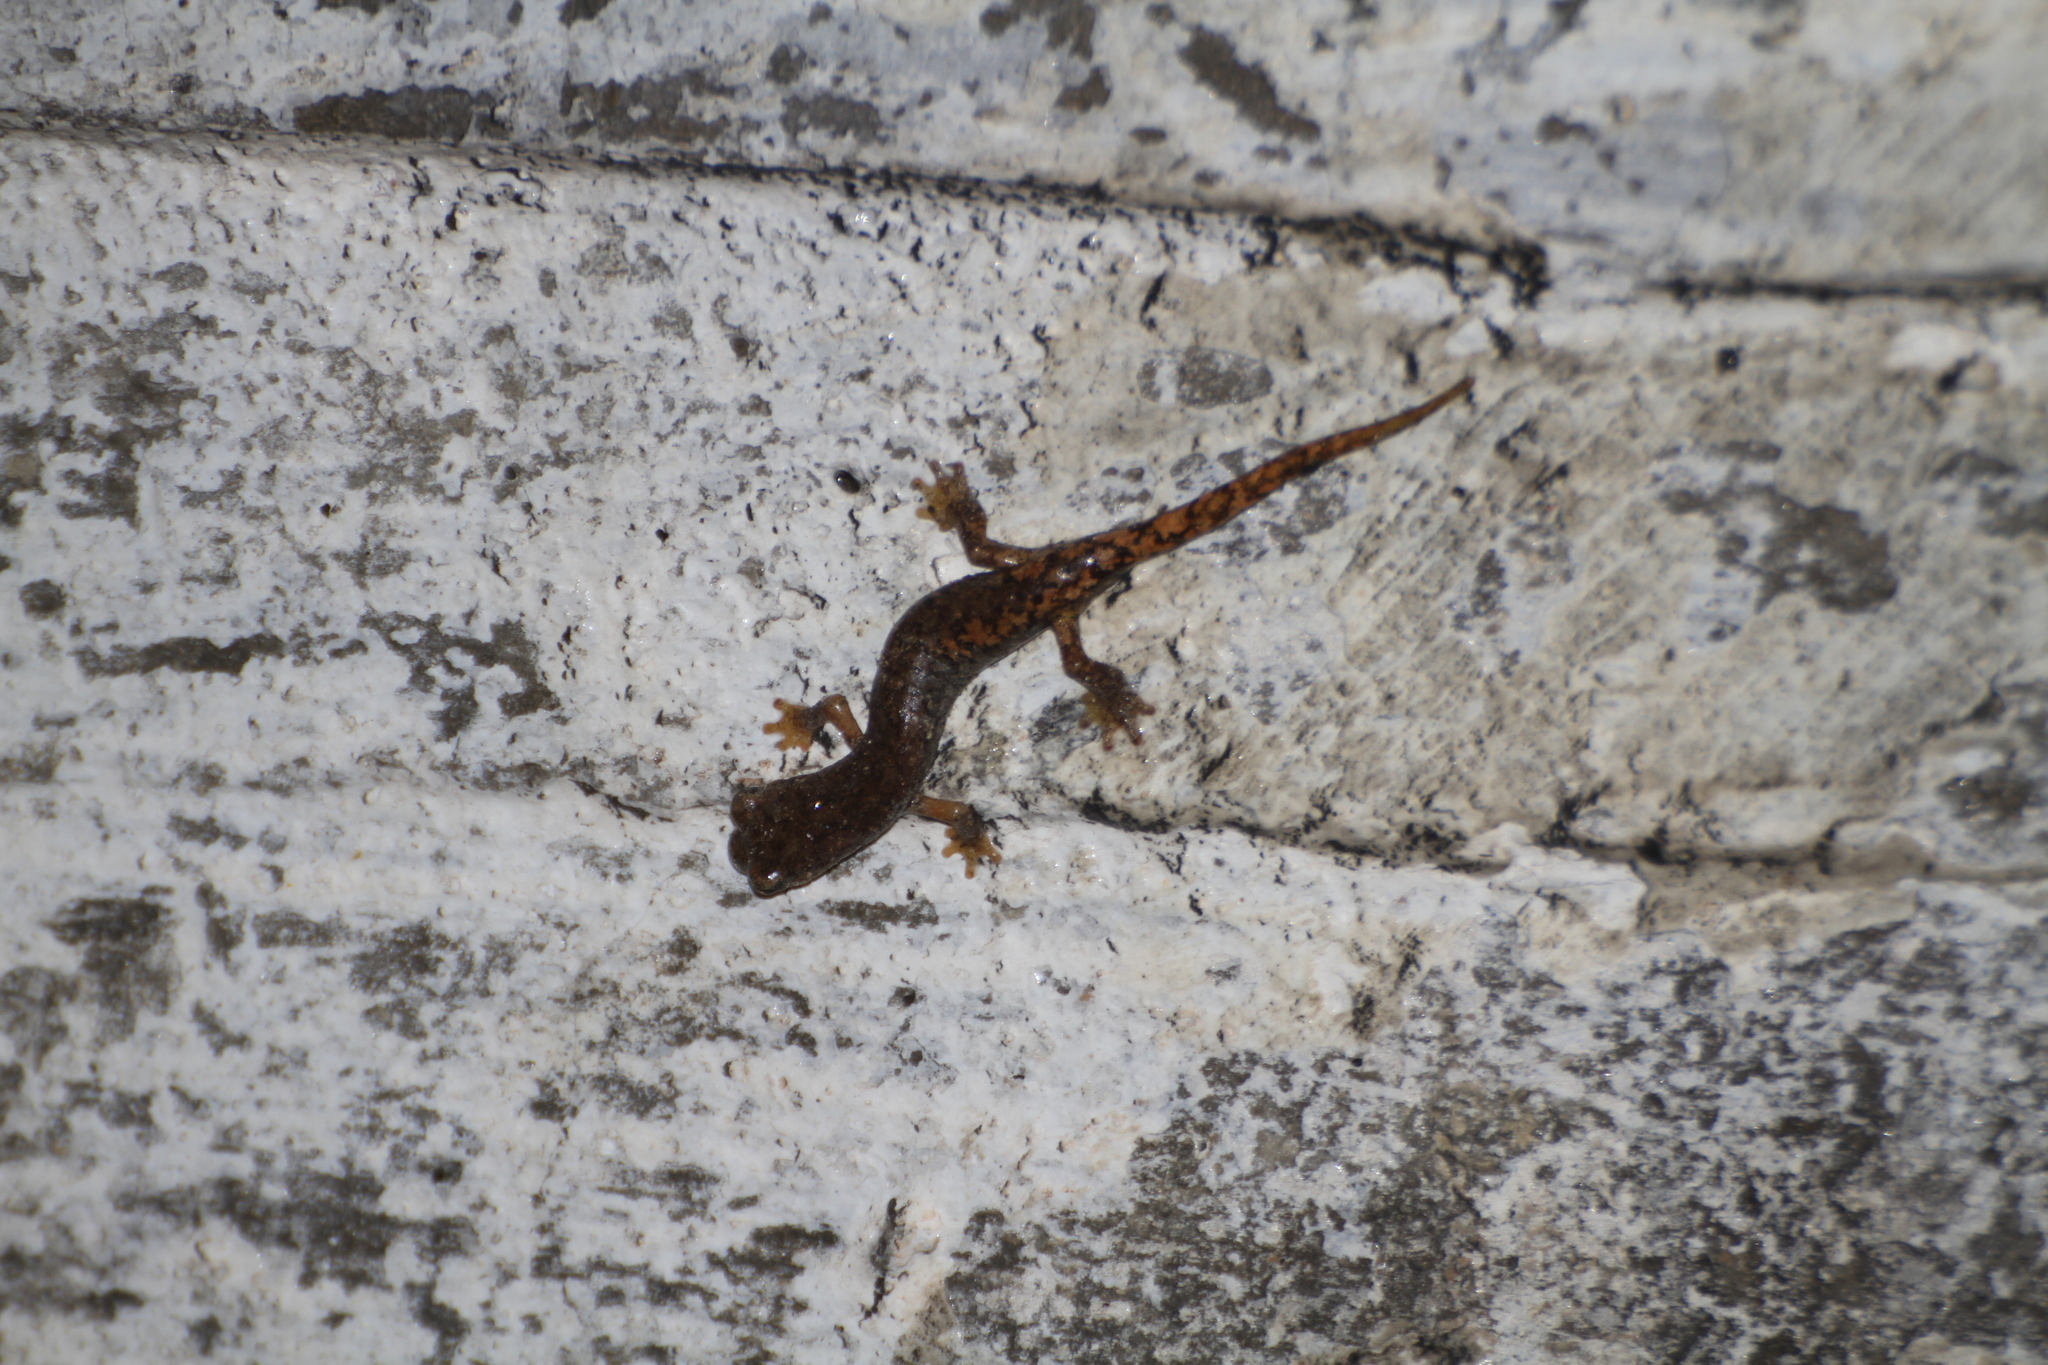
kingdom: Animalia
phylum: Chordata
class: Amphibia
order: Caudata
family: Plethodontidae
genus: Speleomantes
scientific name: Speleomantes strinatii
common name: French cave salamander
